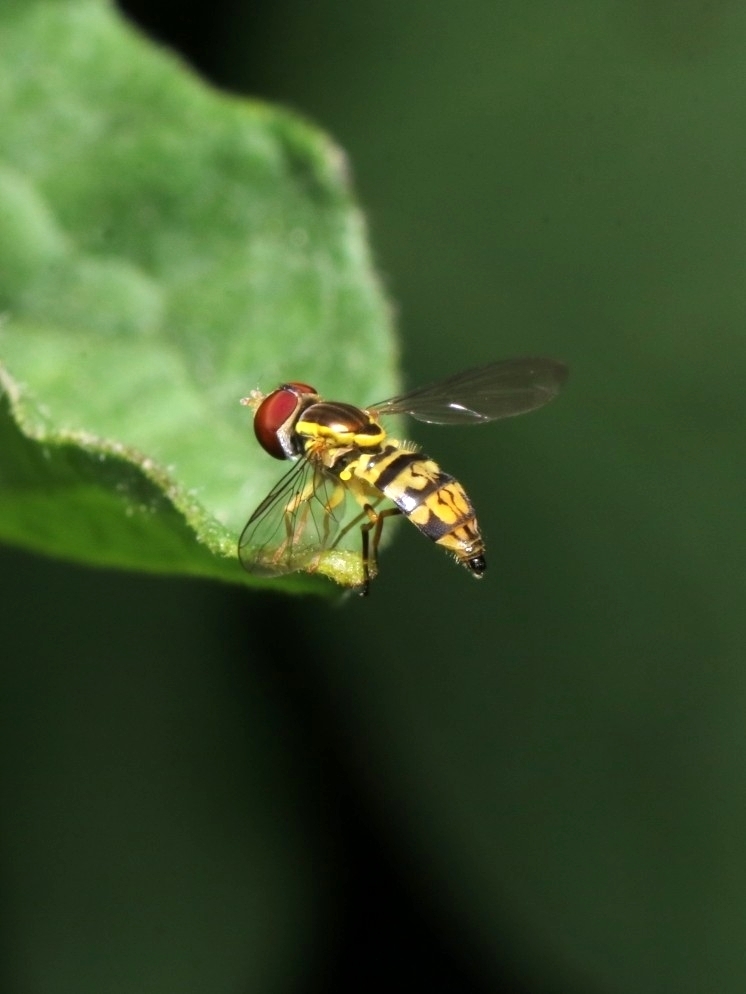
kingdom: Animalia
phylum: Arthropoda
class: Insecta
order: Diptera
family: Syrphidae
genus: Toxomerus
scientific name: Toxomerus geminatus
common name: Eastern calligrapher
